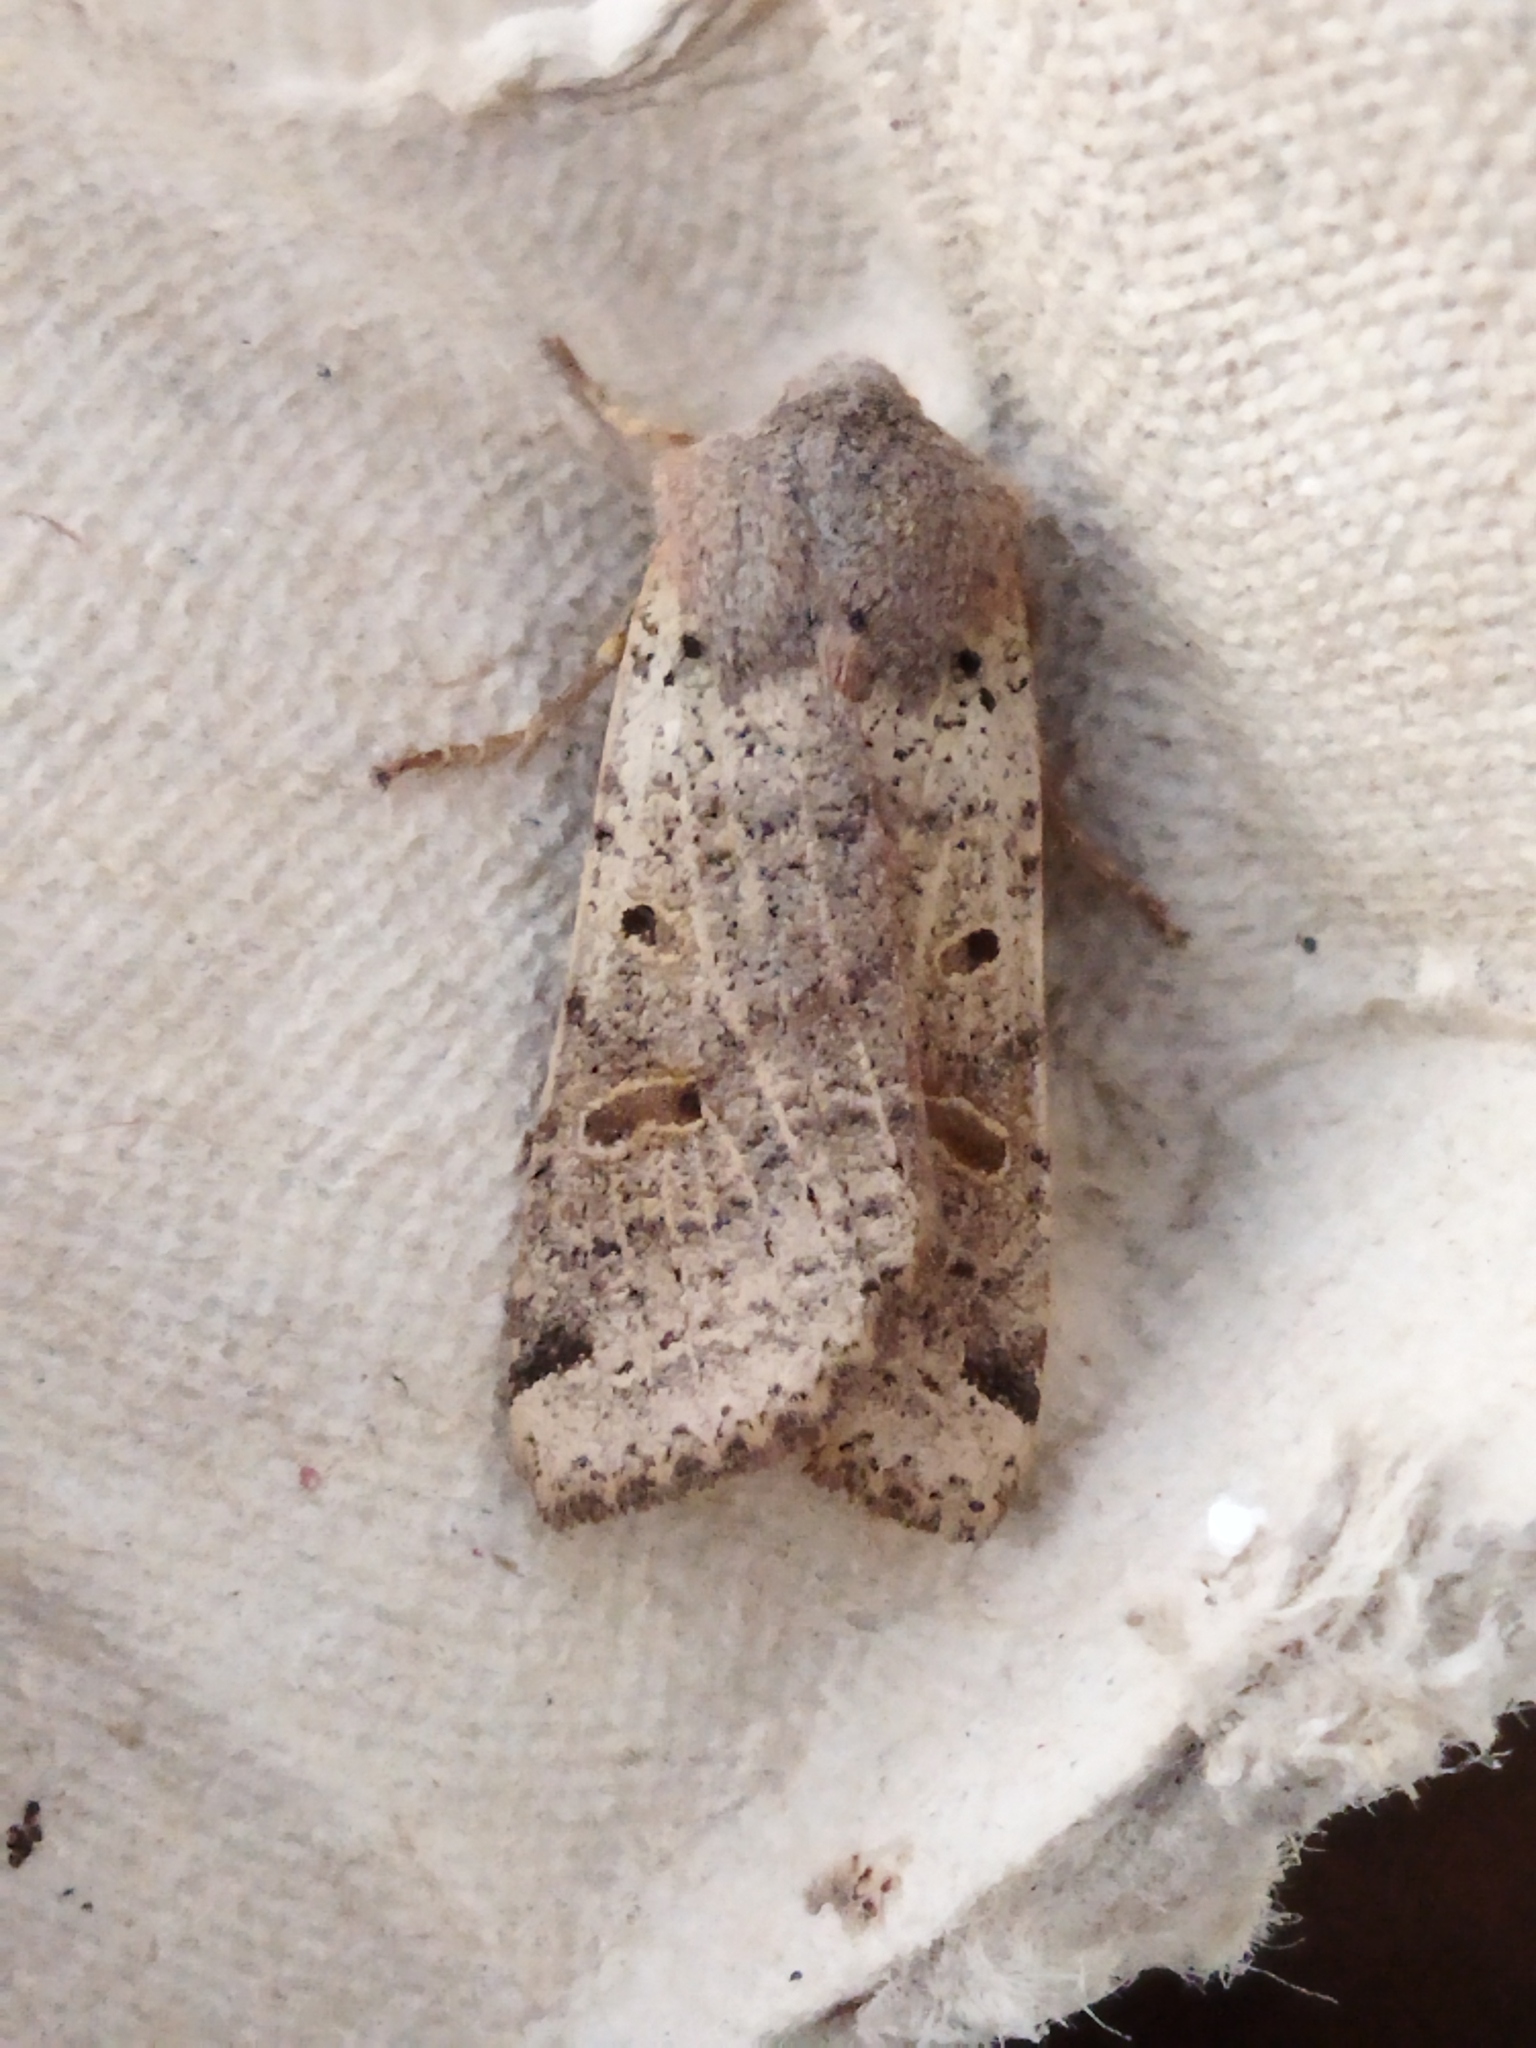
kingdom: Animalia
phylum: Arthropoda
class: Insecta
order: Lepidoptera
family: Noctuidae
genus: Agrochola
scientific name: Agrochola lychnidis
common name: Beaded chestnut
